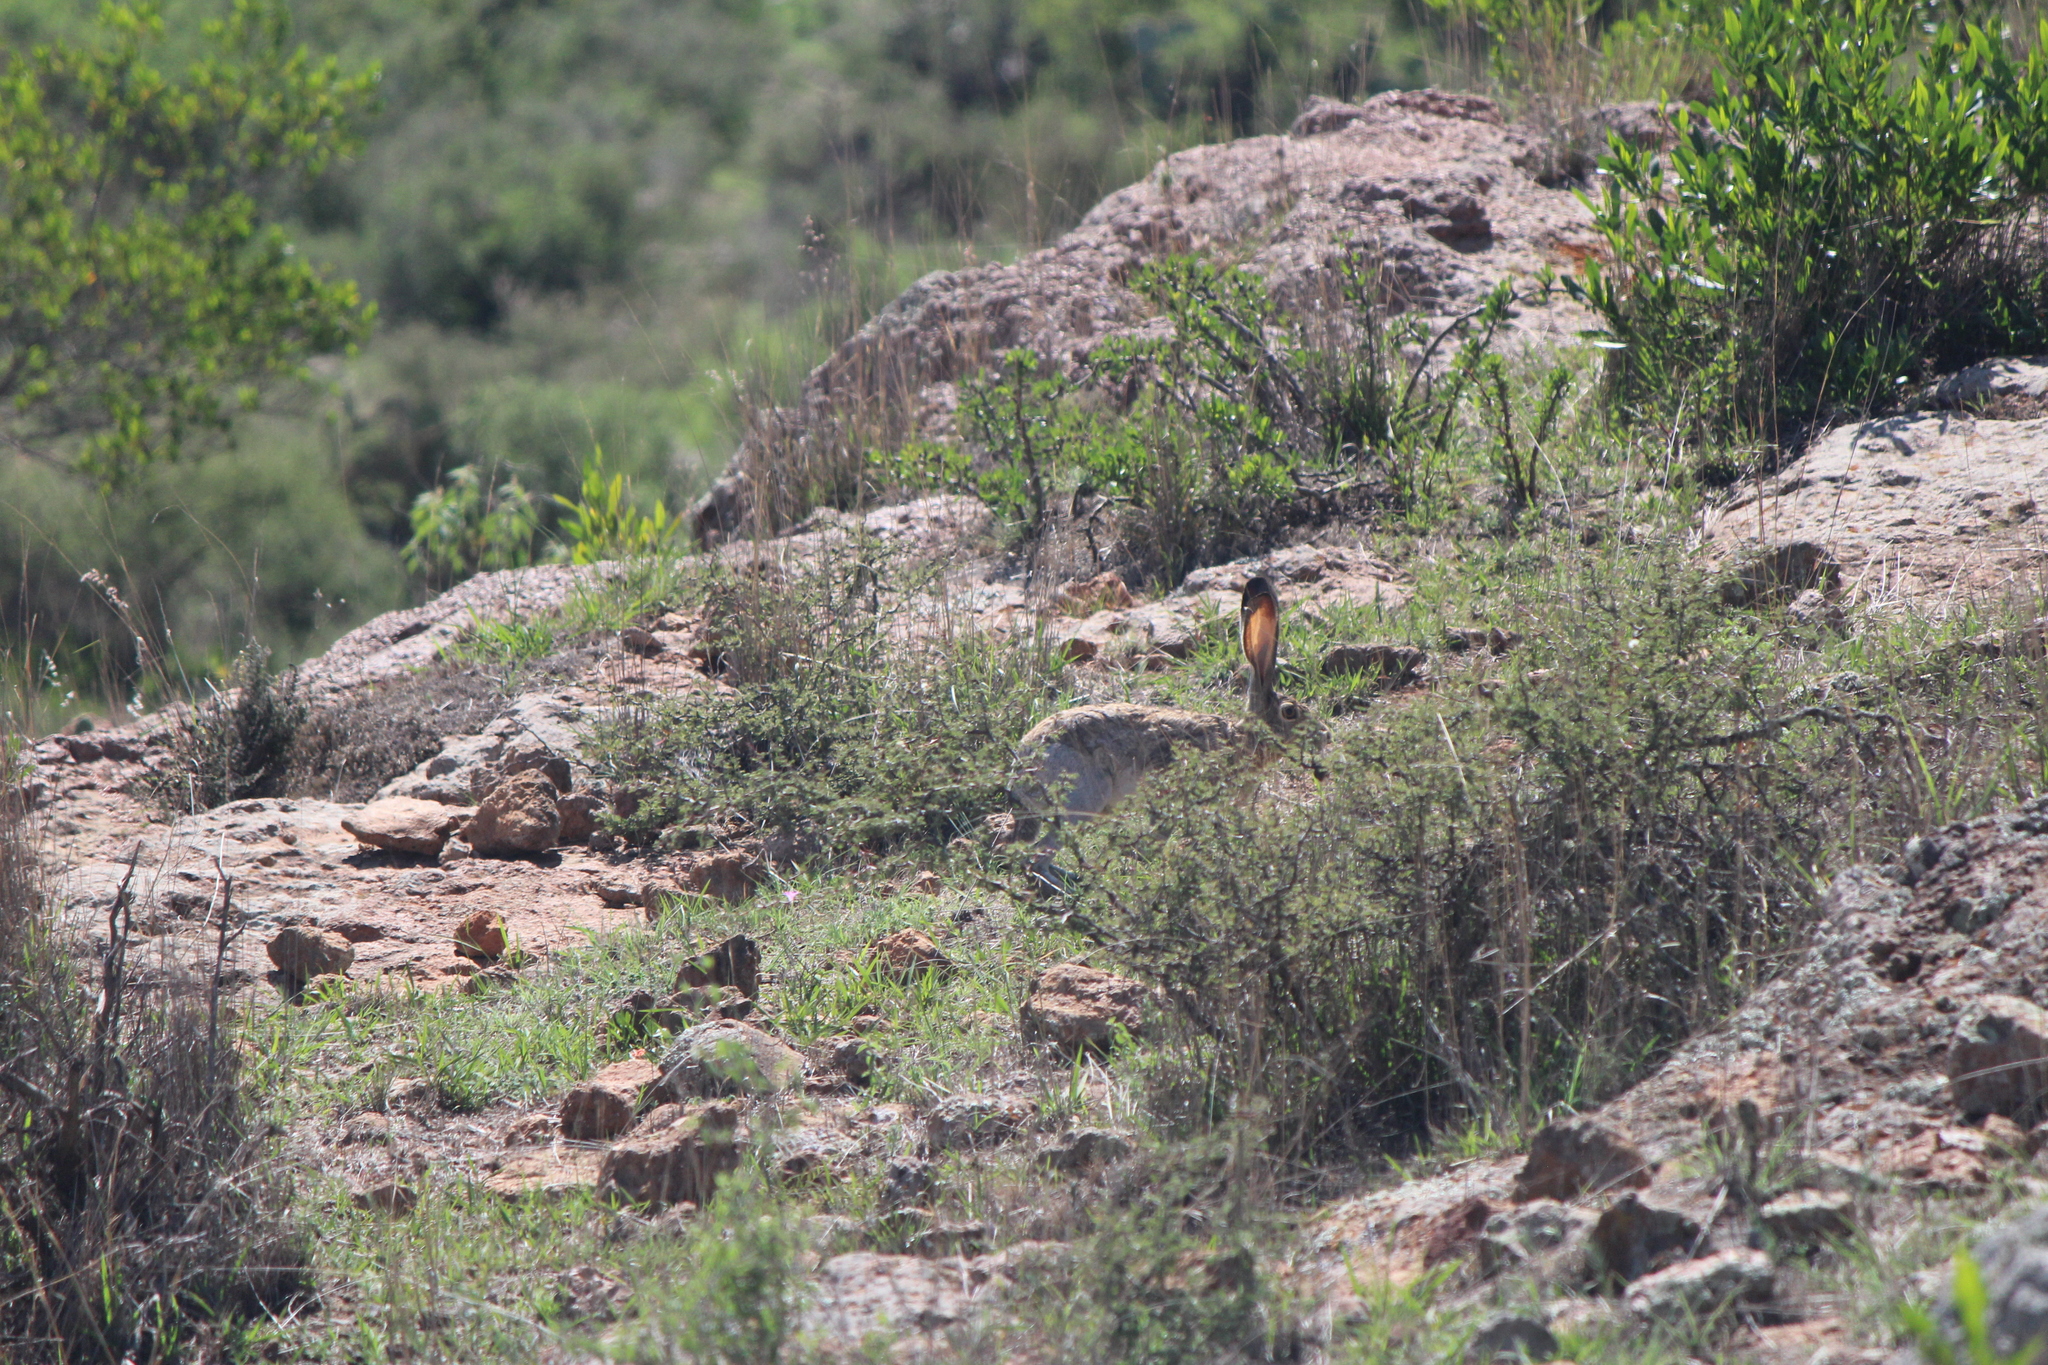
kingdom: Animalia
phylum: Chordata
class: Mammalia
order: Lagomorpha
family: Leporidae
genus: Lepus
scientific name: Lepus californicus
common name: Black-tailed jackrabbit
